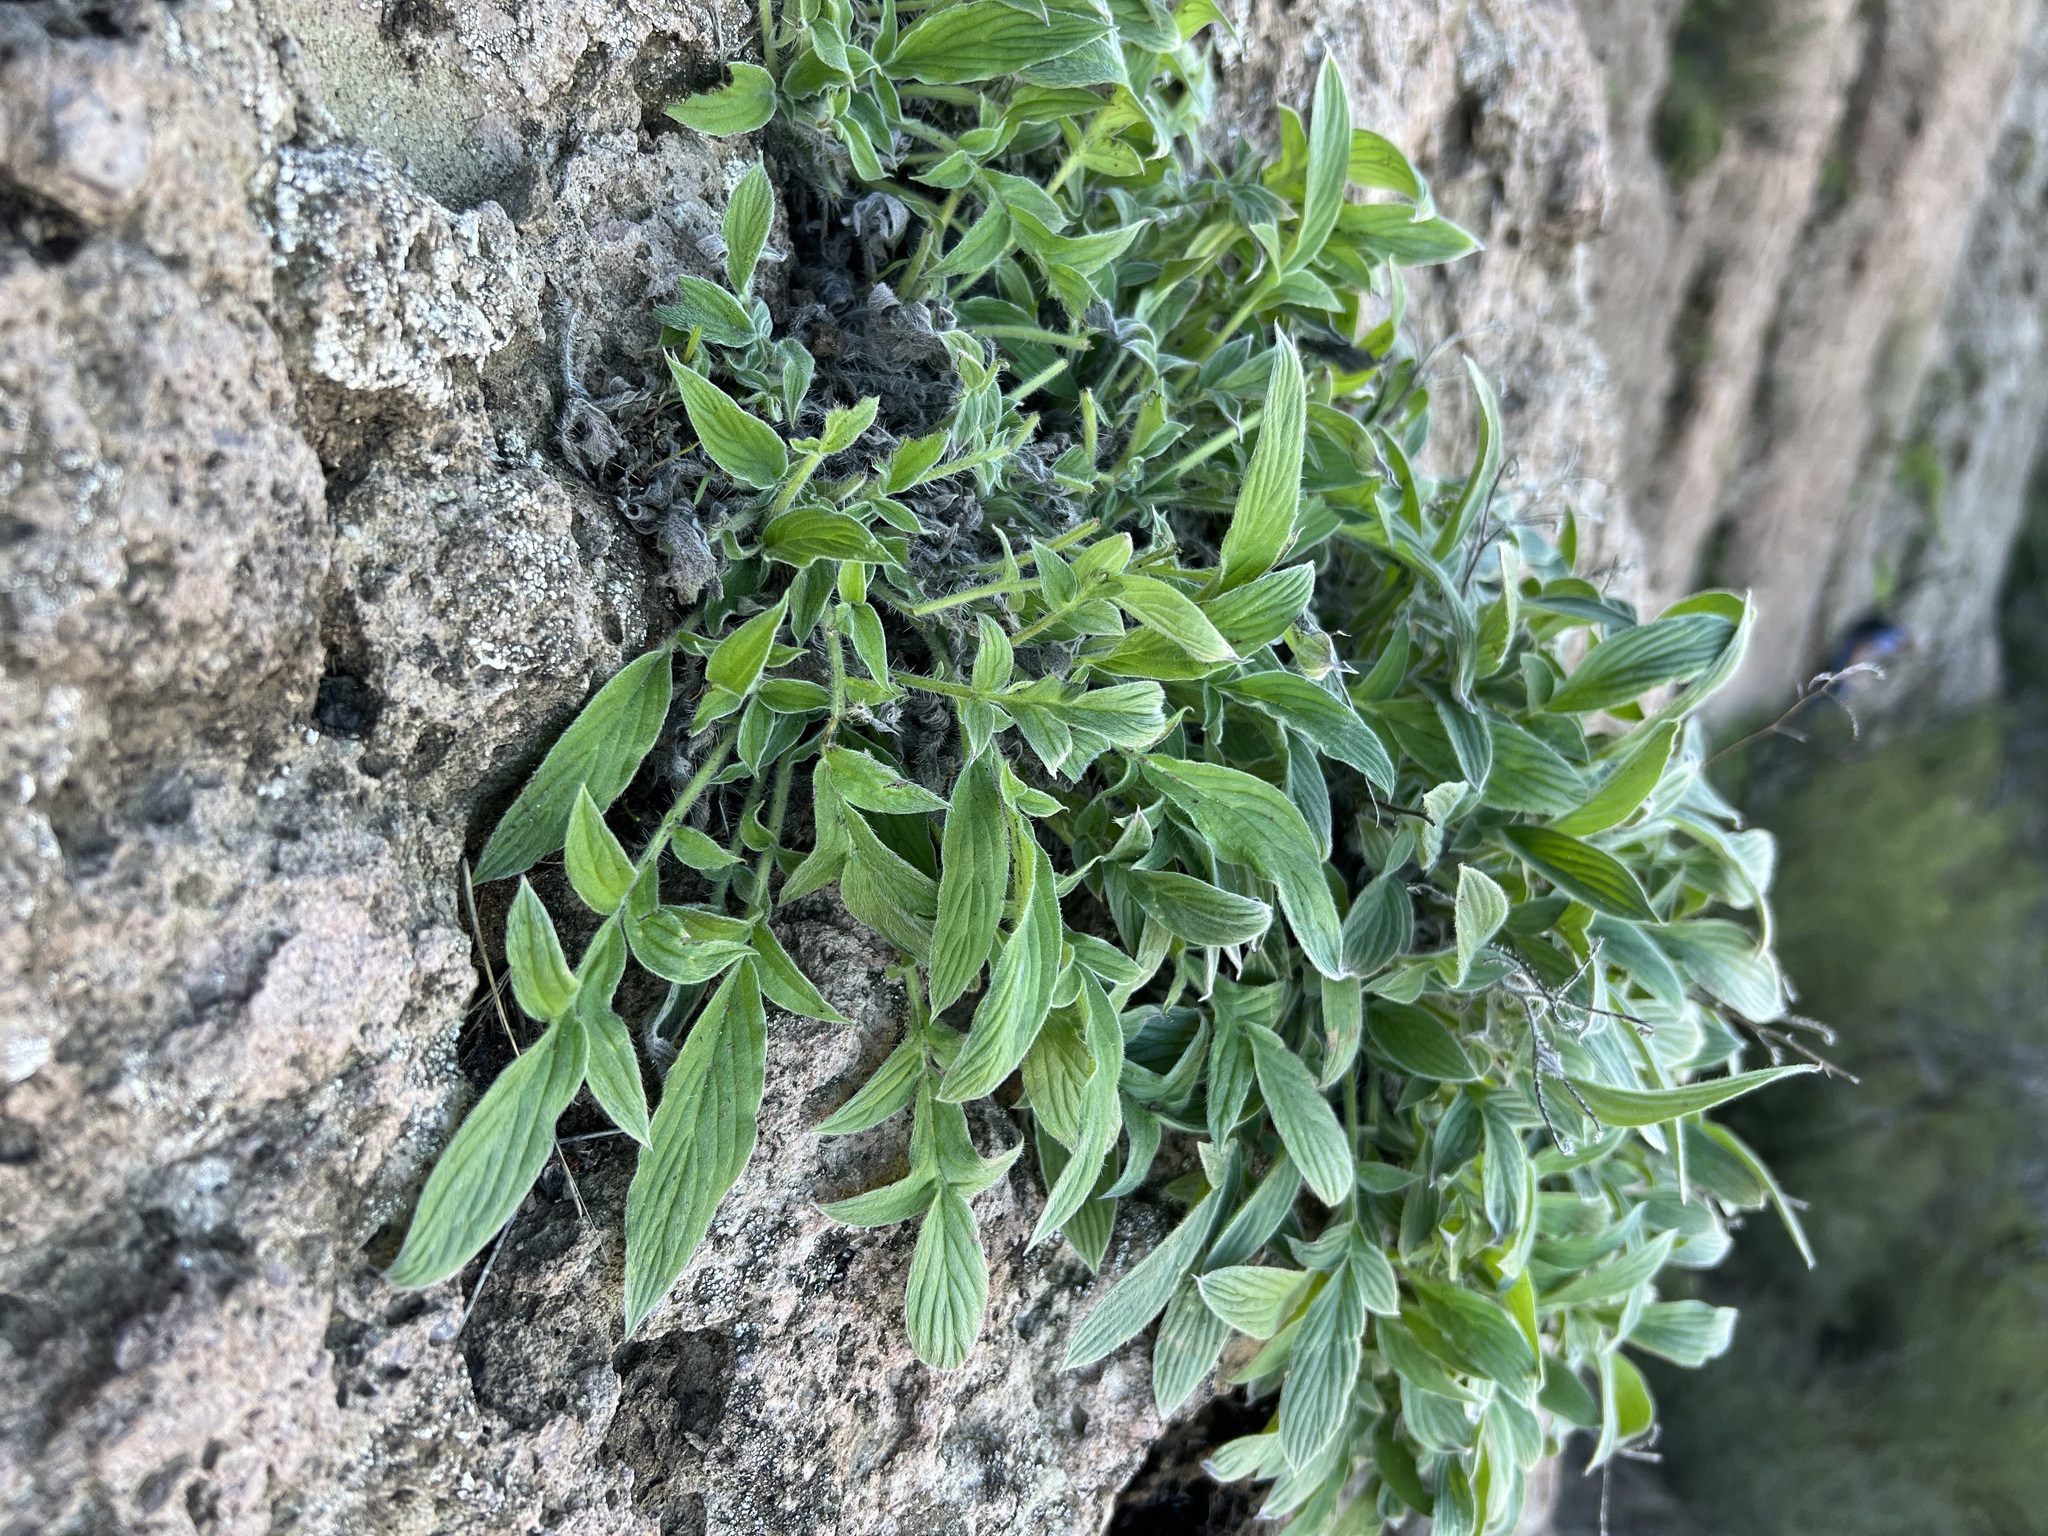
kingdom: Plantae
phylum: Tracheophyta
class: Magnoliopsida
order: Boraginales
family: Hydrophyllaceae
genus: Phacelia
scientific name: Phacelia imbricata
